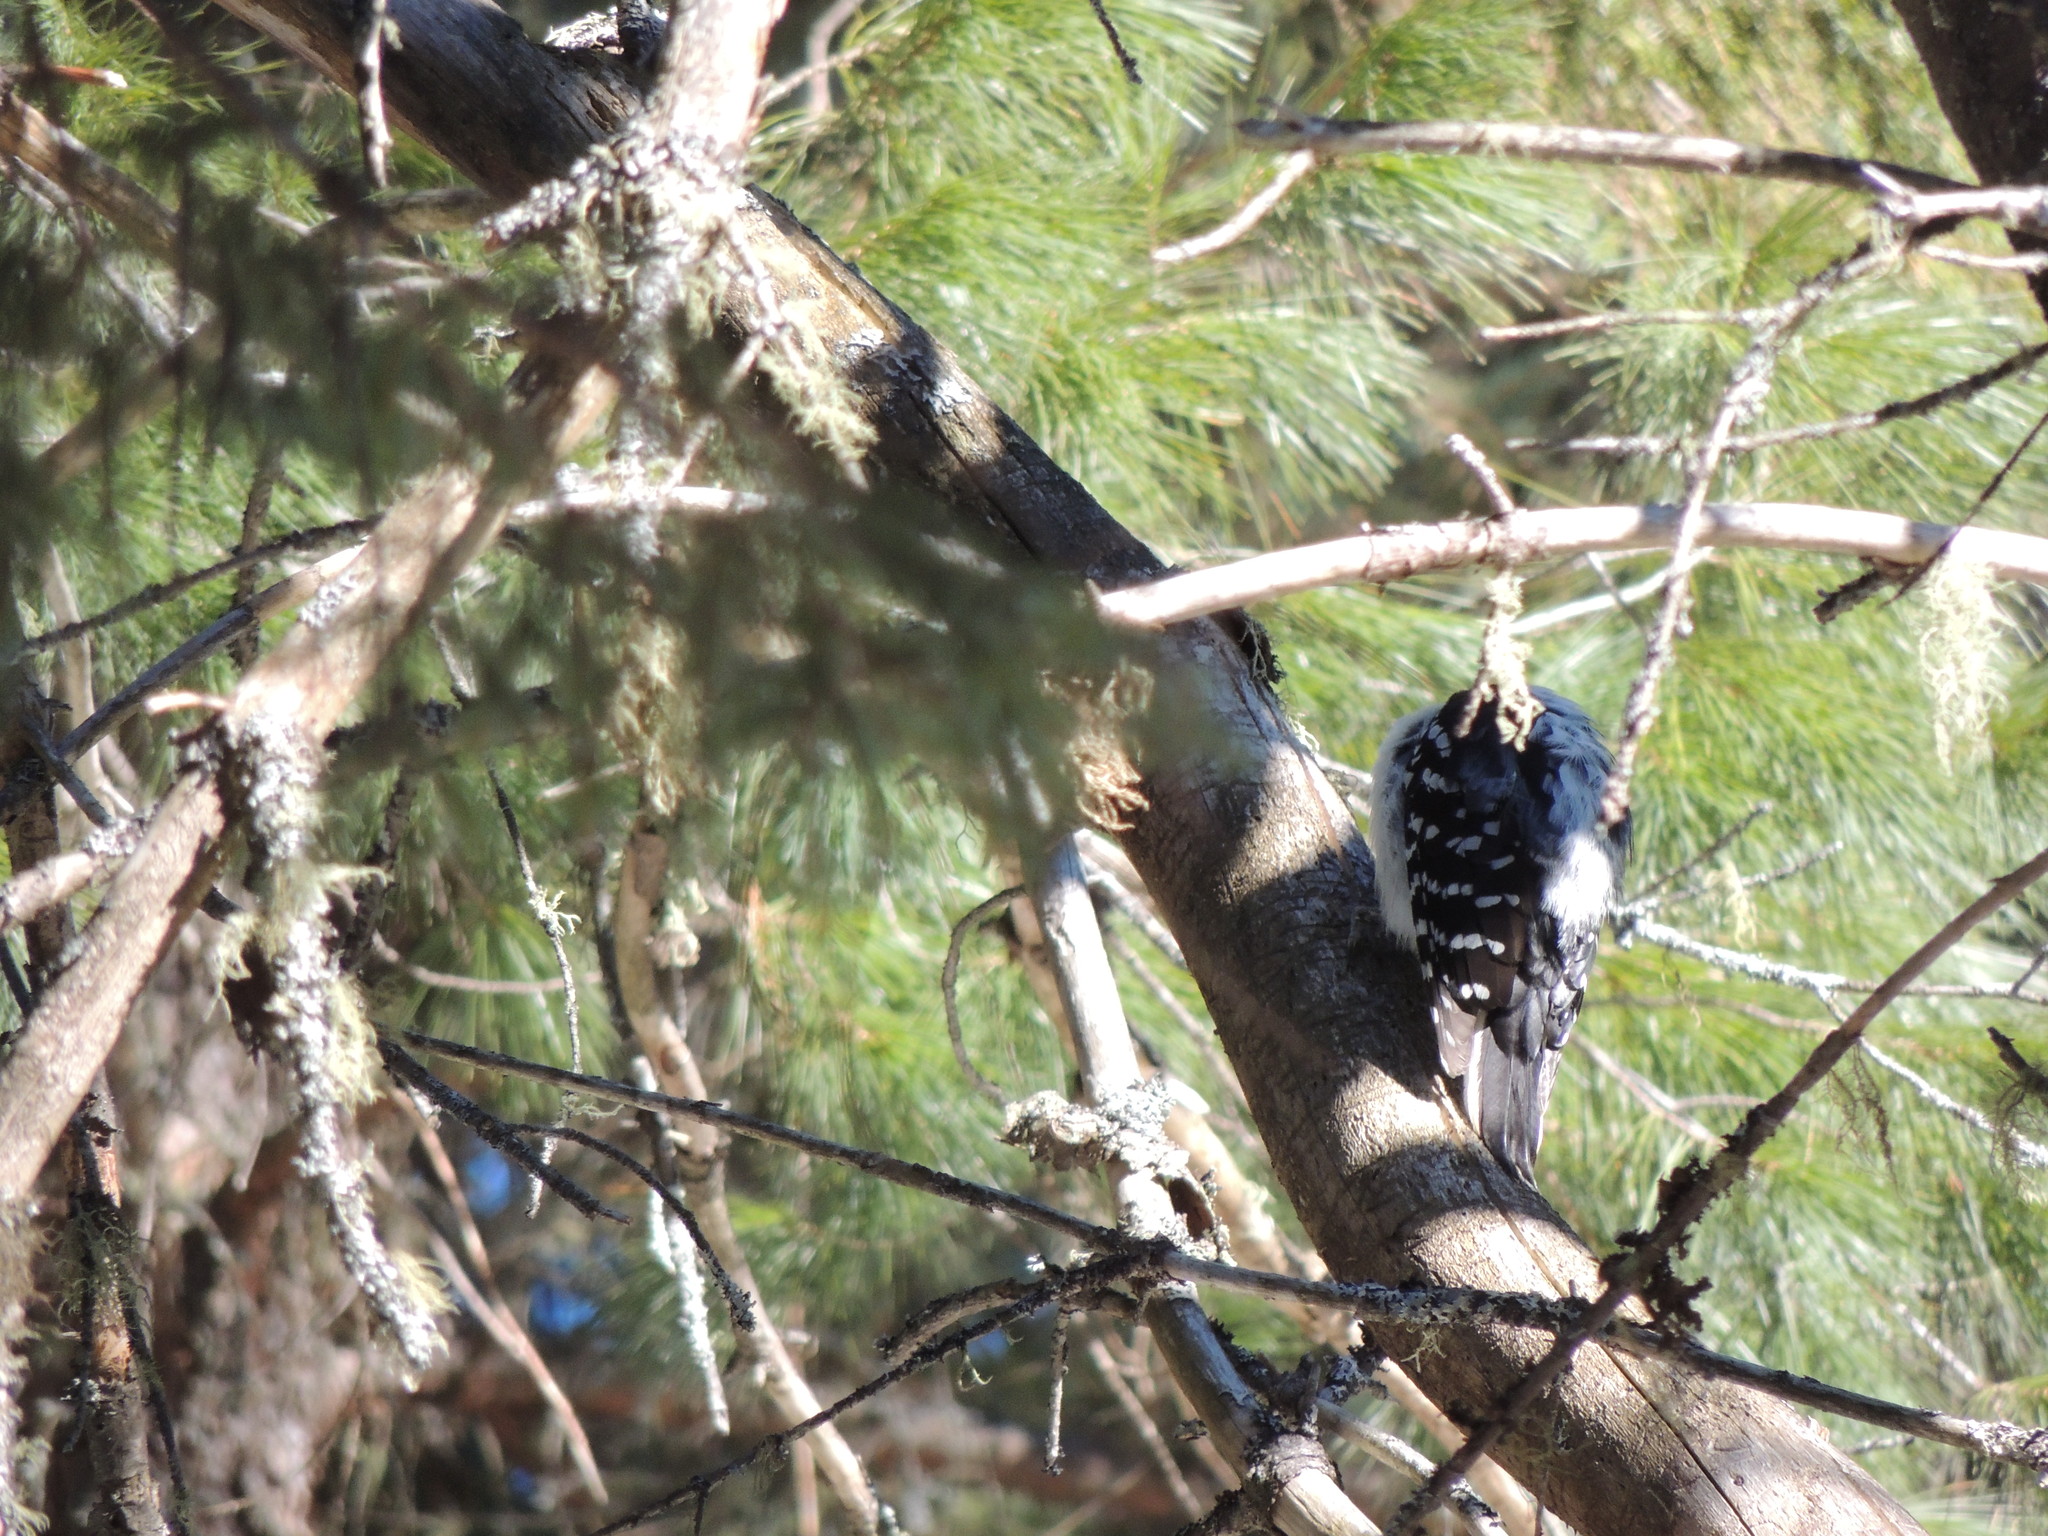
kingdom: Animalia
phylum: Chordata
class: Aves
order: Piciformes
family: Picidae
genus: Leuconotopicus
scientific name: Leuconotopicus villosus
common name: Hairy woodpecker
